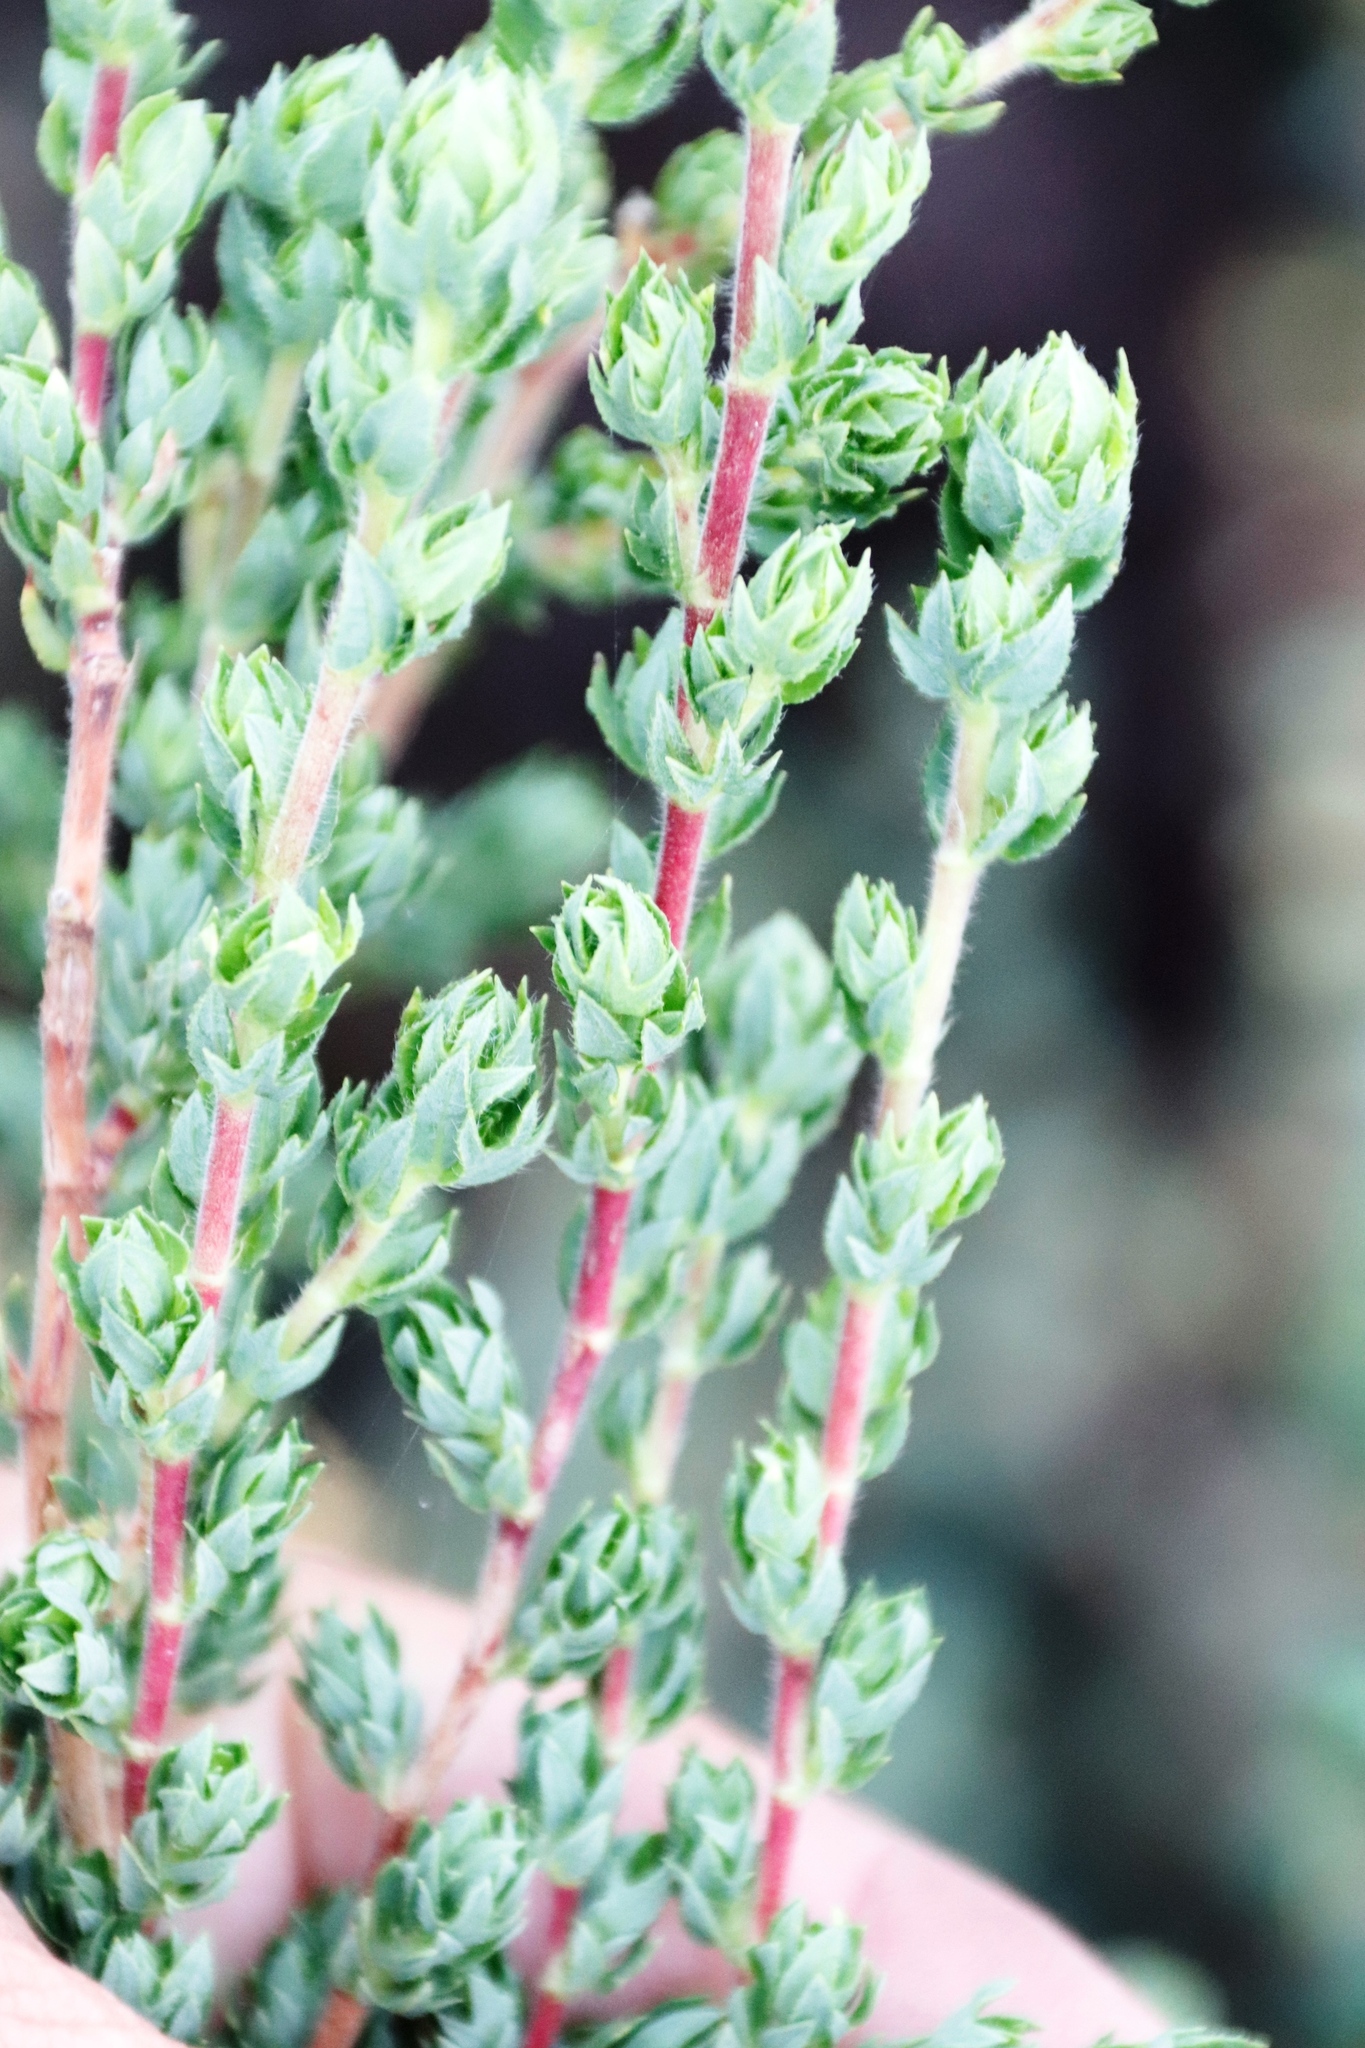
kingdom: Plantae
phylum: Tracheophyta
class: Magnoliopsida
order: Rosales
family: Rosaceae
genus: Cliffortia
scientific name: Cliffortia polygonifolia
